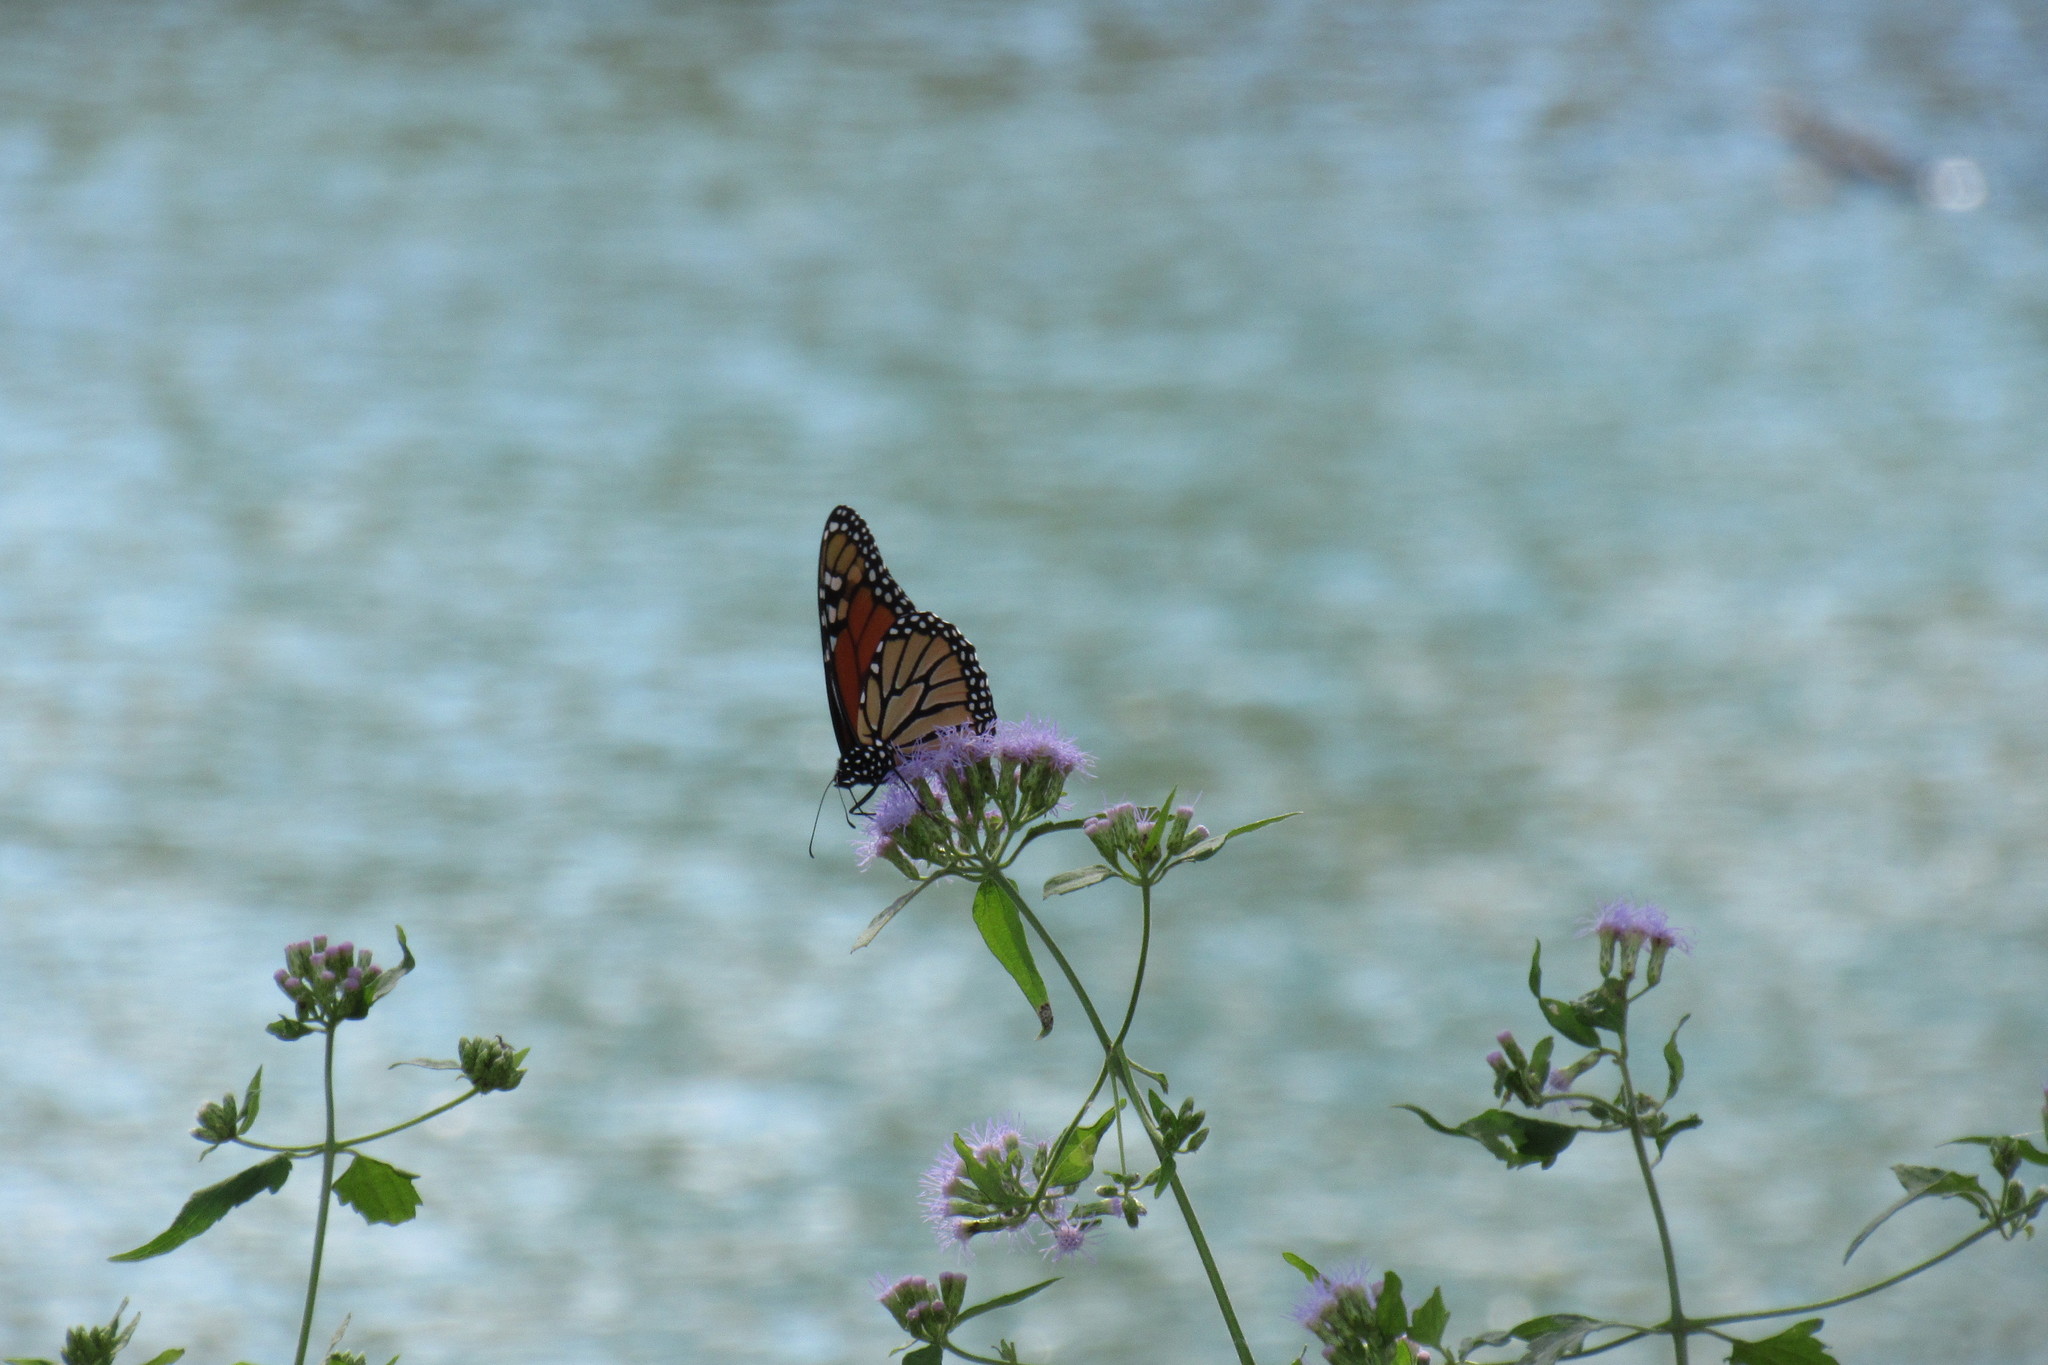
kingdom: Animalia
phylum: Arthropoda
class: Insecta
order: Lepidoptera
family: Nymphalidae
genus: Danaus
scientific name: Danaus plexippus
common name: Monarch
